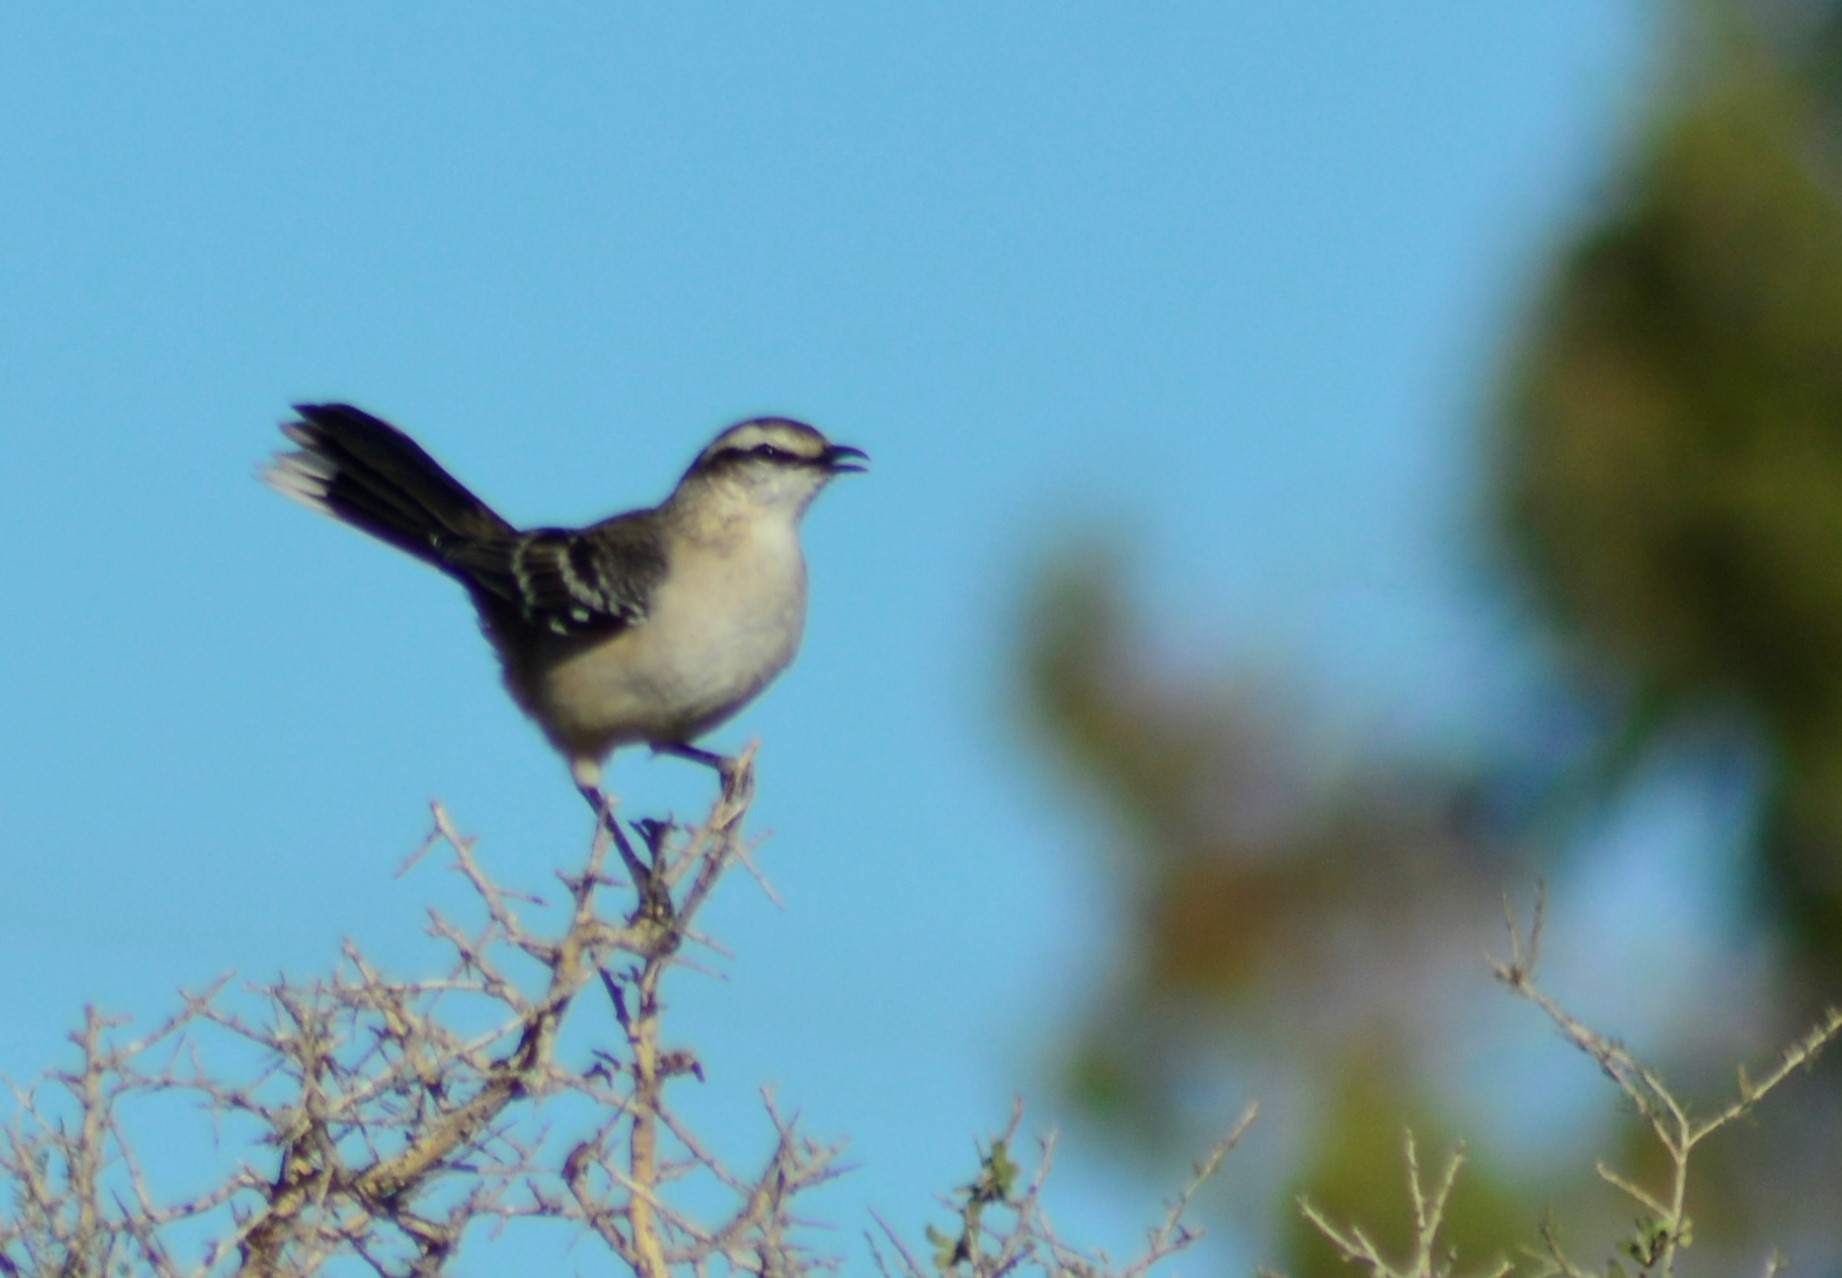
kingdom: Animalia
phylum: Chordata
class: Aves
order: Passeriformes
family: Mimidae
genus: Mimus
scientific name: Mimus saturninus
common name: Chalk-browed mockingbird
